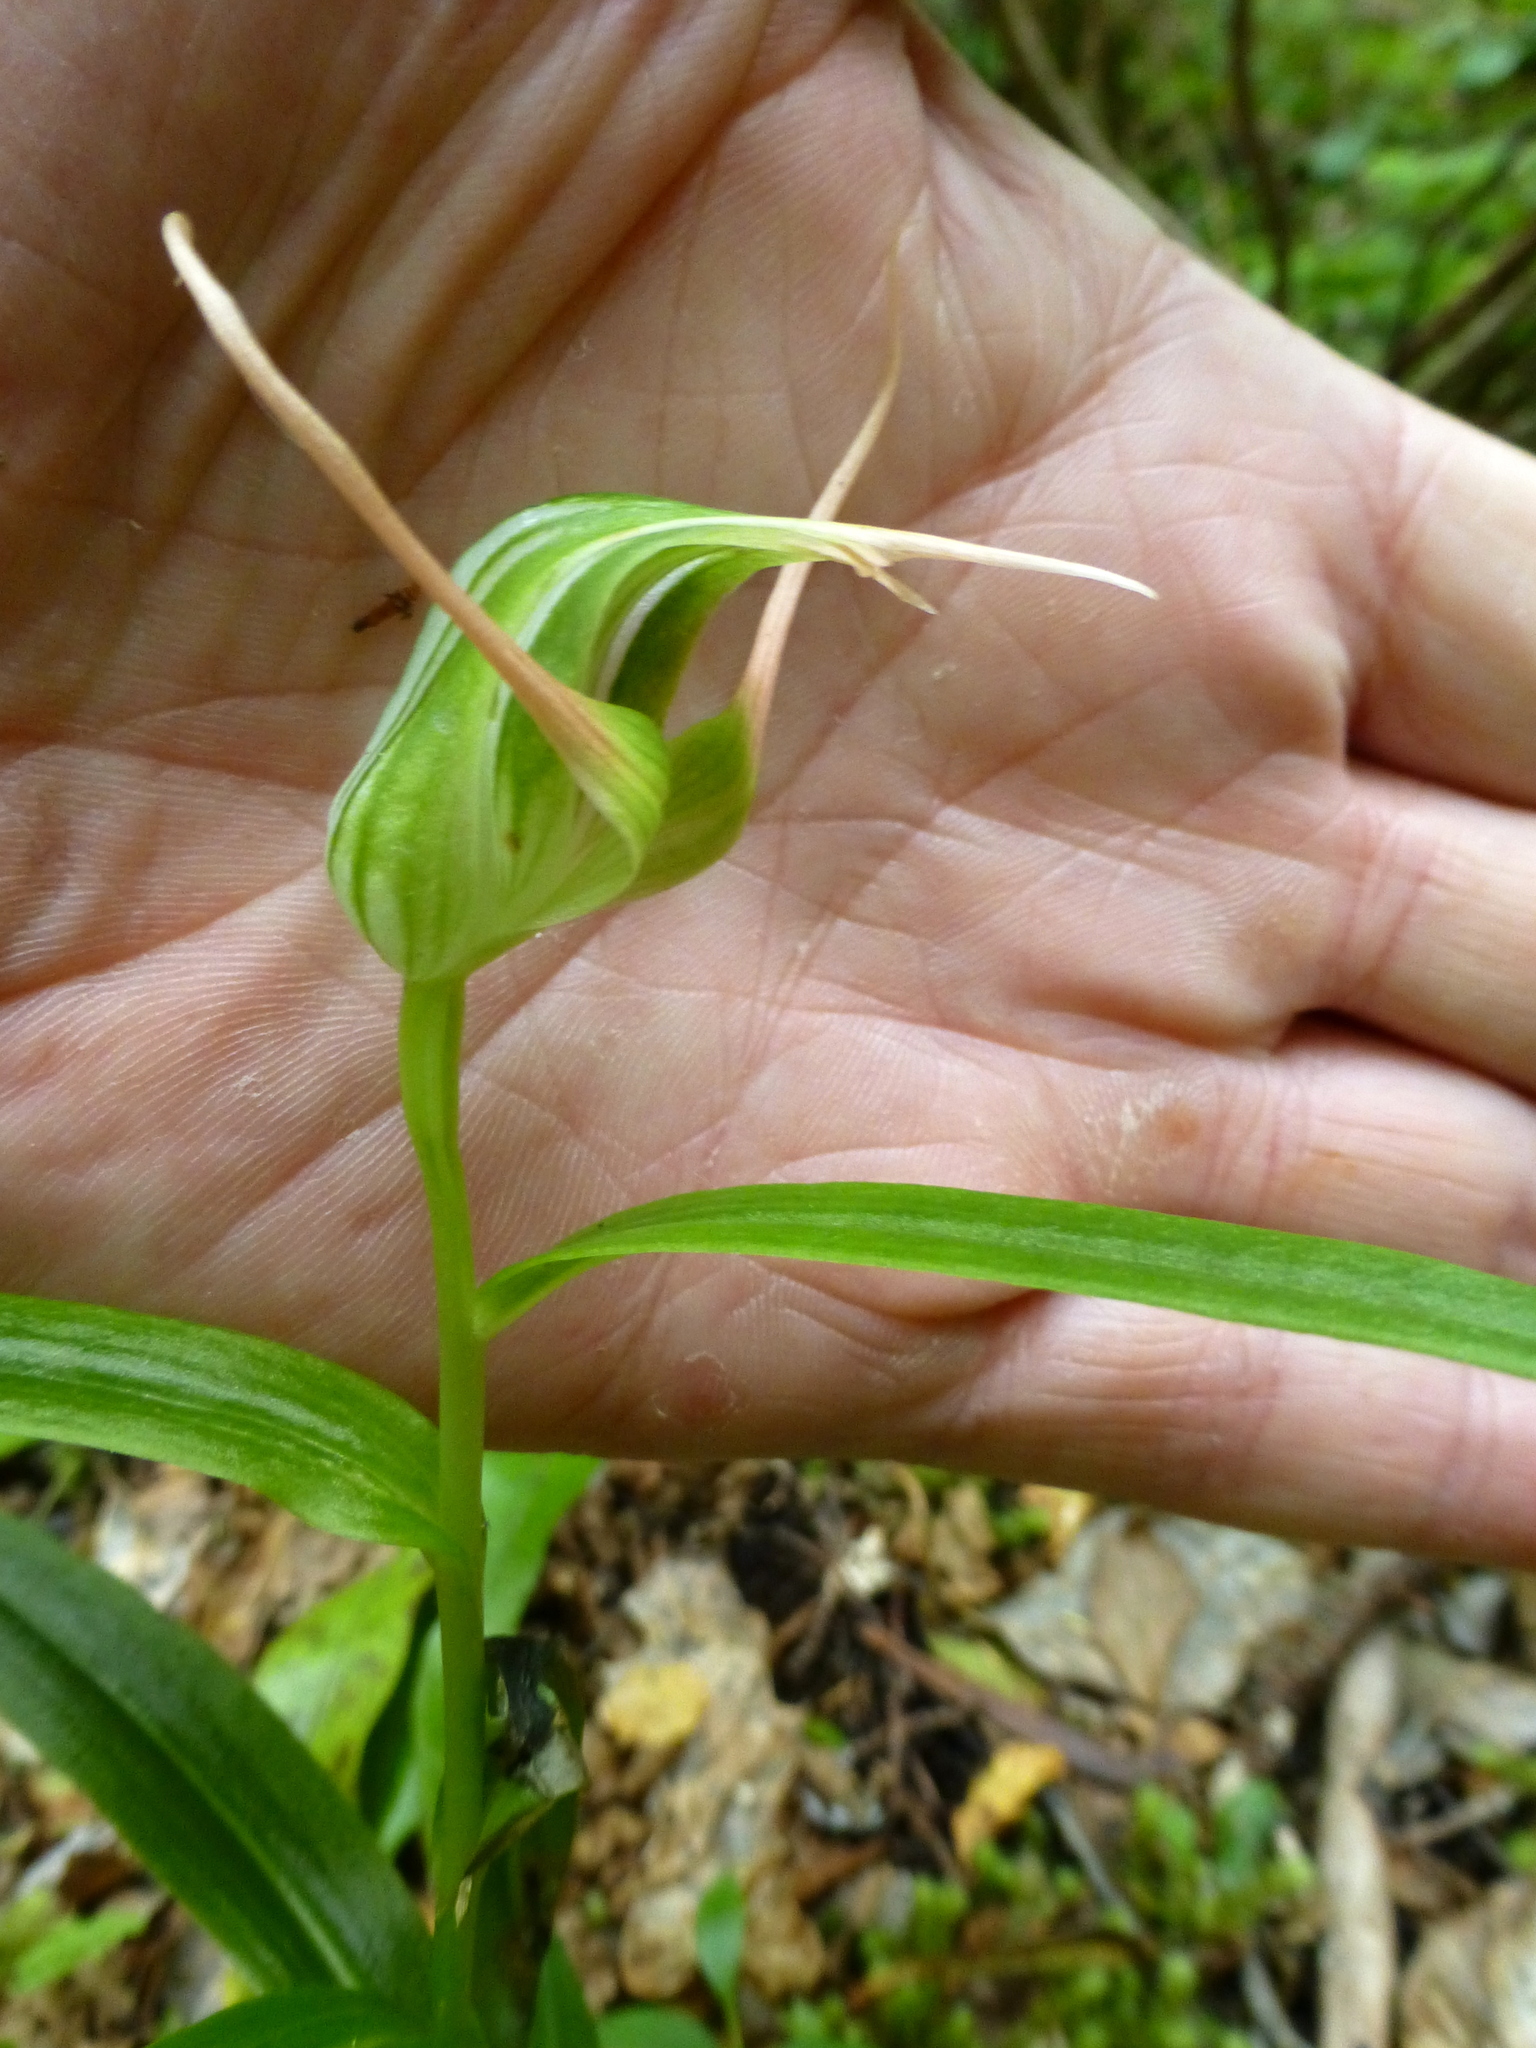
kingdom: Plantae
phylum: Tracheophyta
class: Liliopsida
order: Asparagales
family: Orchidaceae
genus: Pterostylis
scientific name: Pterostylis banksii
